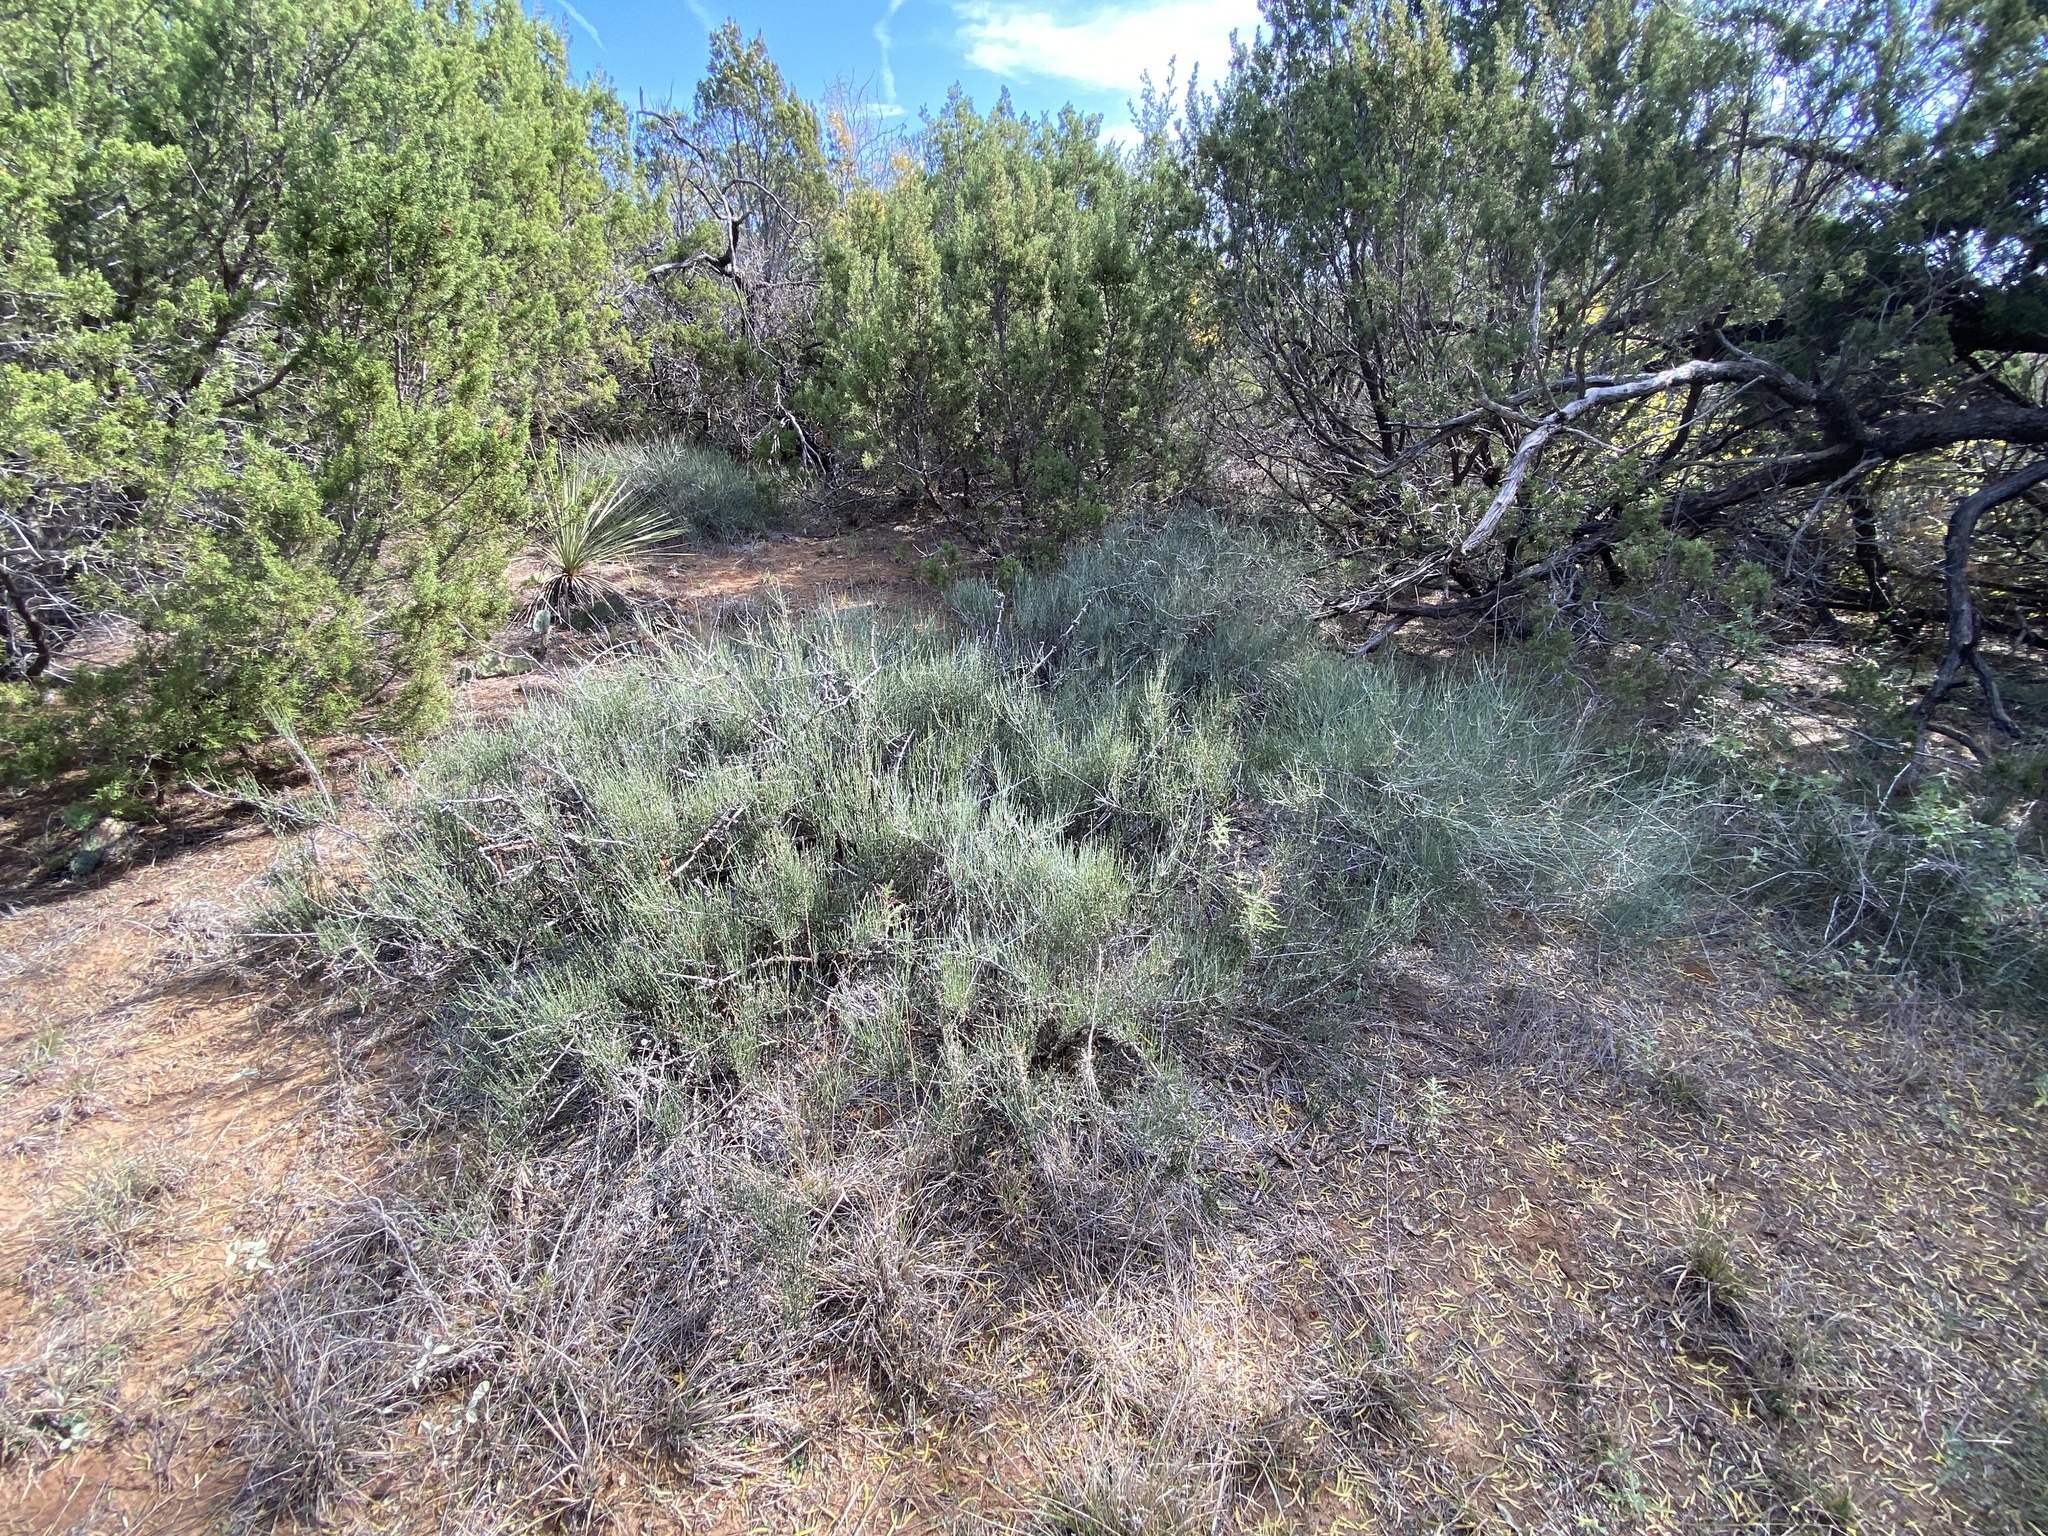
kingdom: Plantae
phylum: Tracheophyta
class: Gnetopsida
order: Ephedrales
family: Ephedraceae
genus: Ephedra
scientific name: Ephedra antisyphilitica
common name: Clipweed
